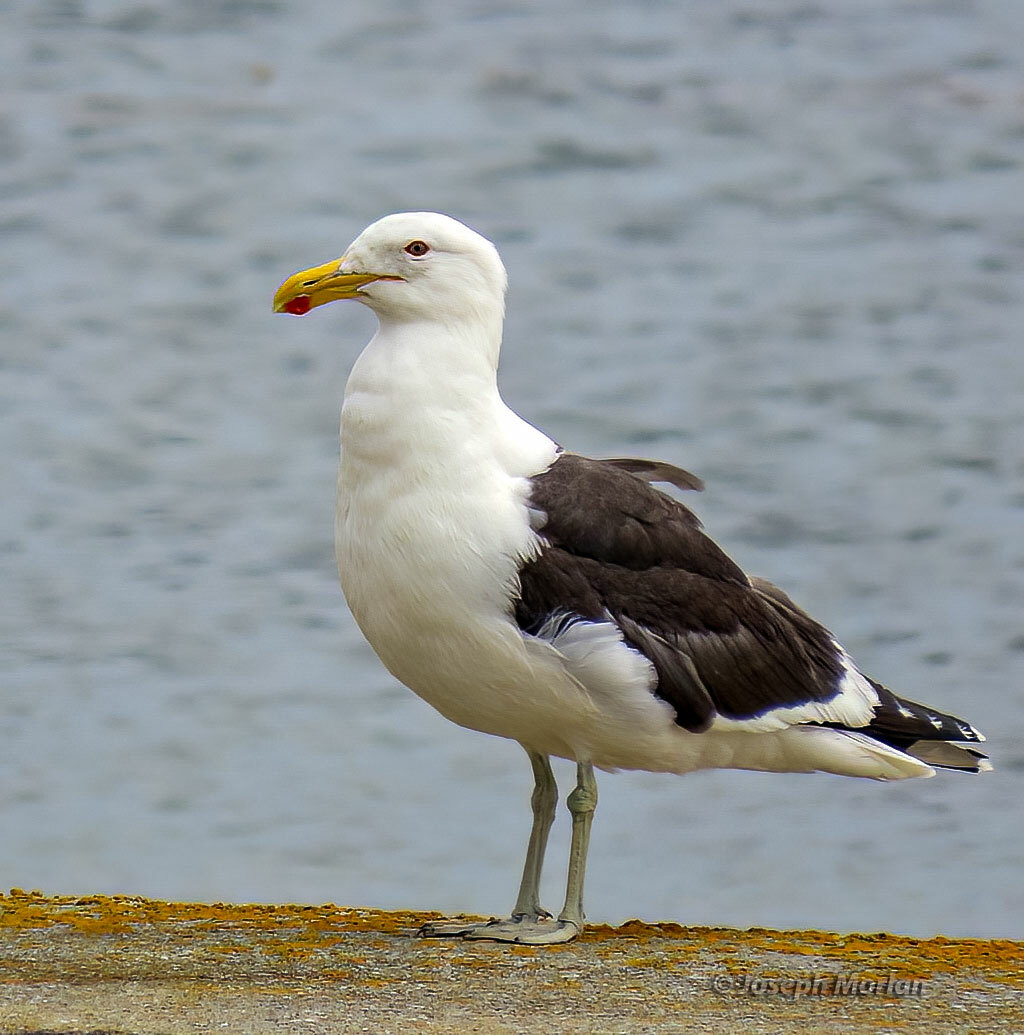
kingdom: Animalia
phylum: Chordata
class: Aves
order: Charadriiformes
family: Laridae
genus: Larus
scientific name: Larus dominicanus
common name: Kelp gull
